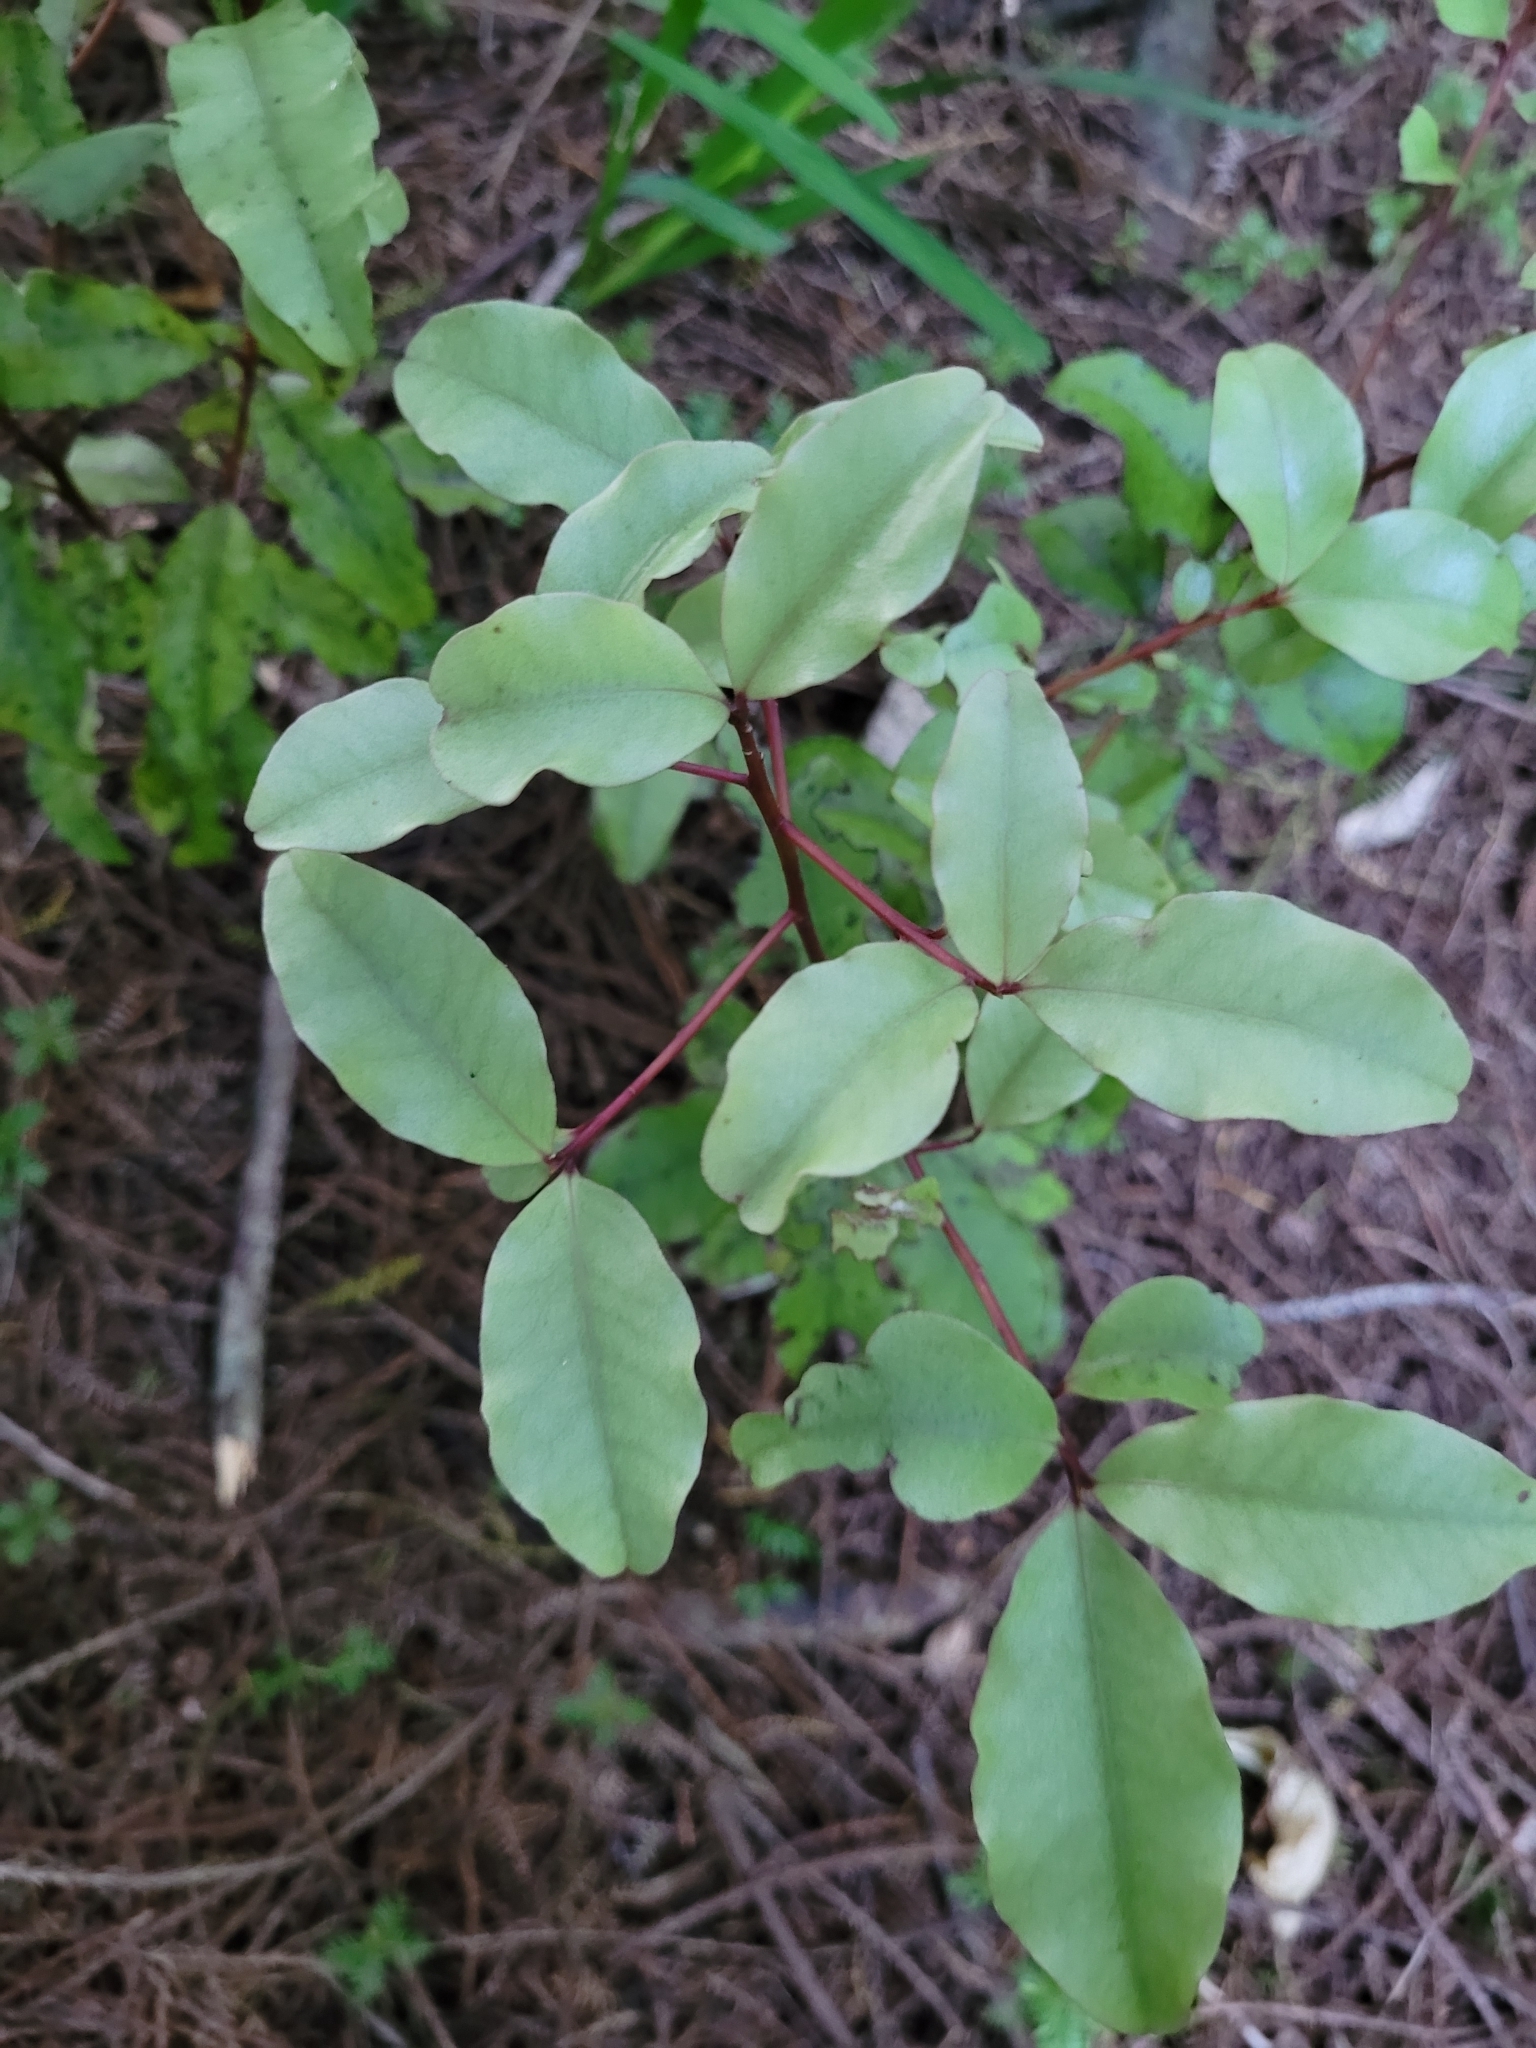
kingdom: Plantae
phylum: Tracheophyta
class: Magnoliopsida
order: Ericales
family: Primulaceae
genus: Myrsine
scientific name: Myrsine australis
